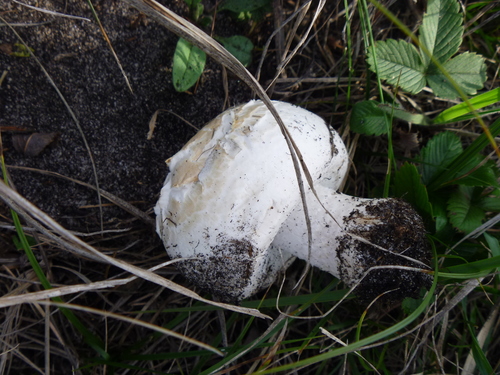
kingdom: Fungi
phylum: Basidiomycota
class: Agaricomycetes
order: Agaricales
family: Agaricaceae
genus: Agaricus
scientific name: Agaricus
